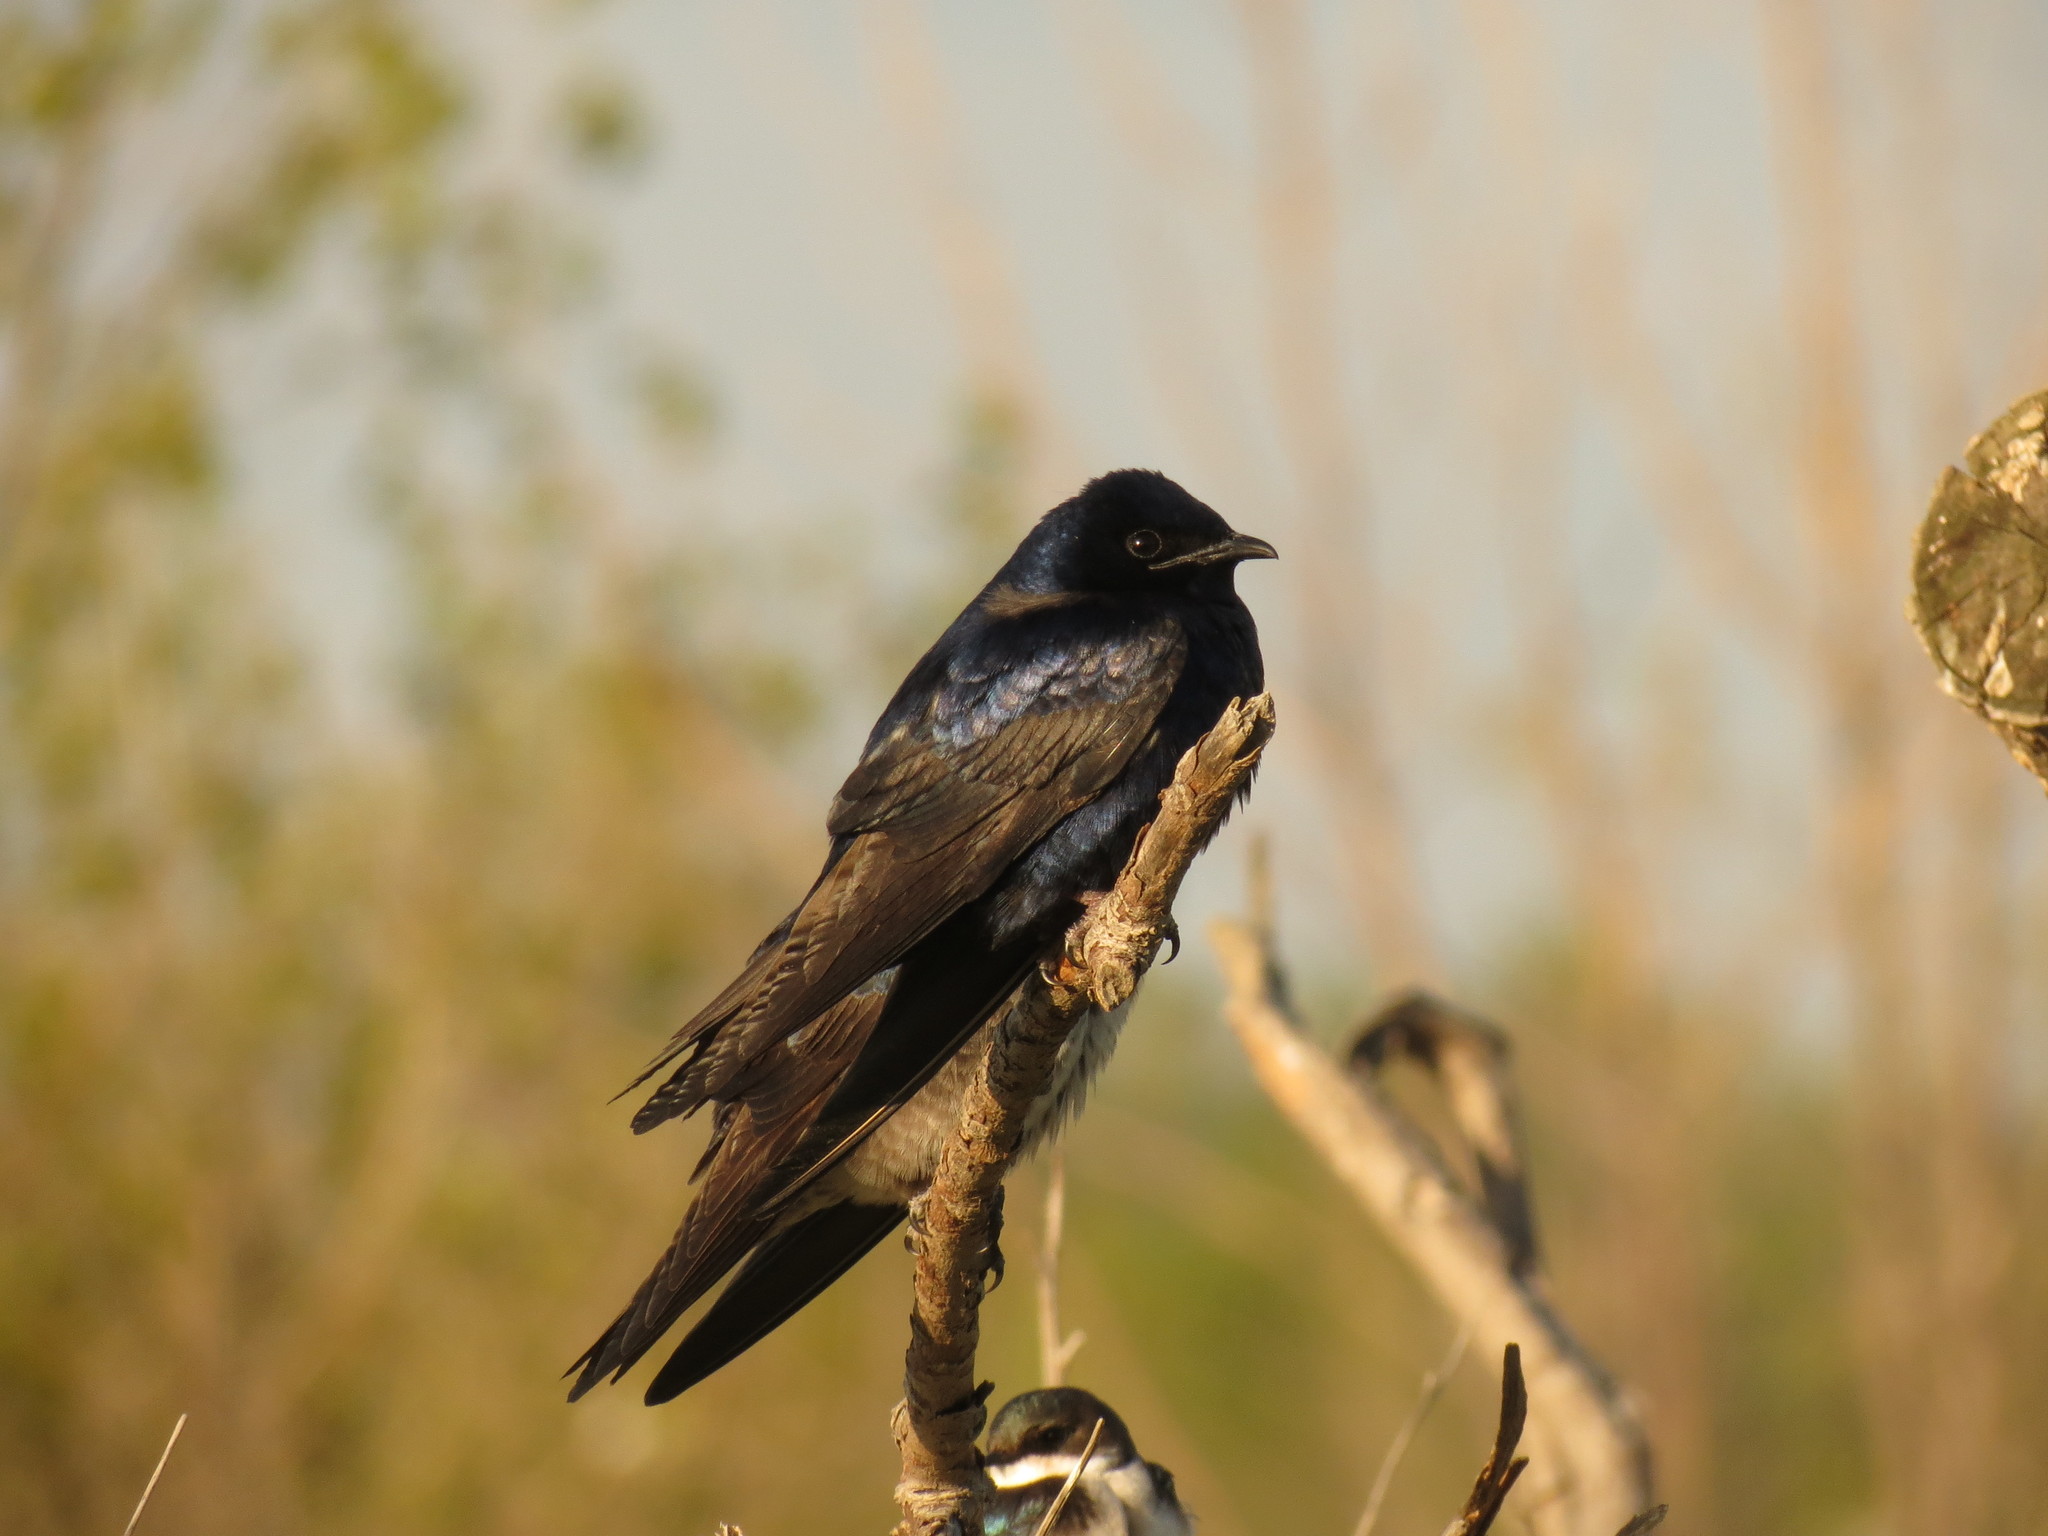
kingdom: Animalia
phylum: Chordata
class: Aves
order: Passeriformes
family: Hirundinidae
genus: Progne
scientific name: Progne subis
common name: Purple martin
